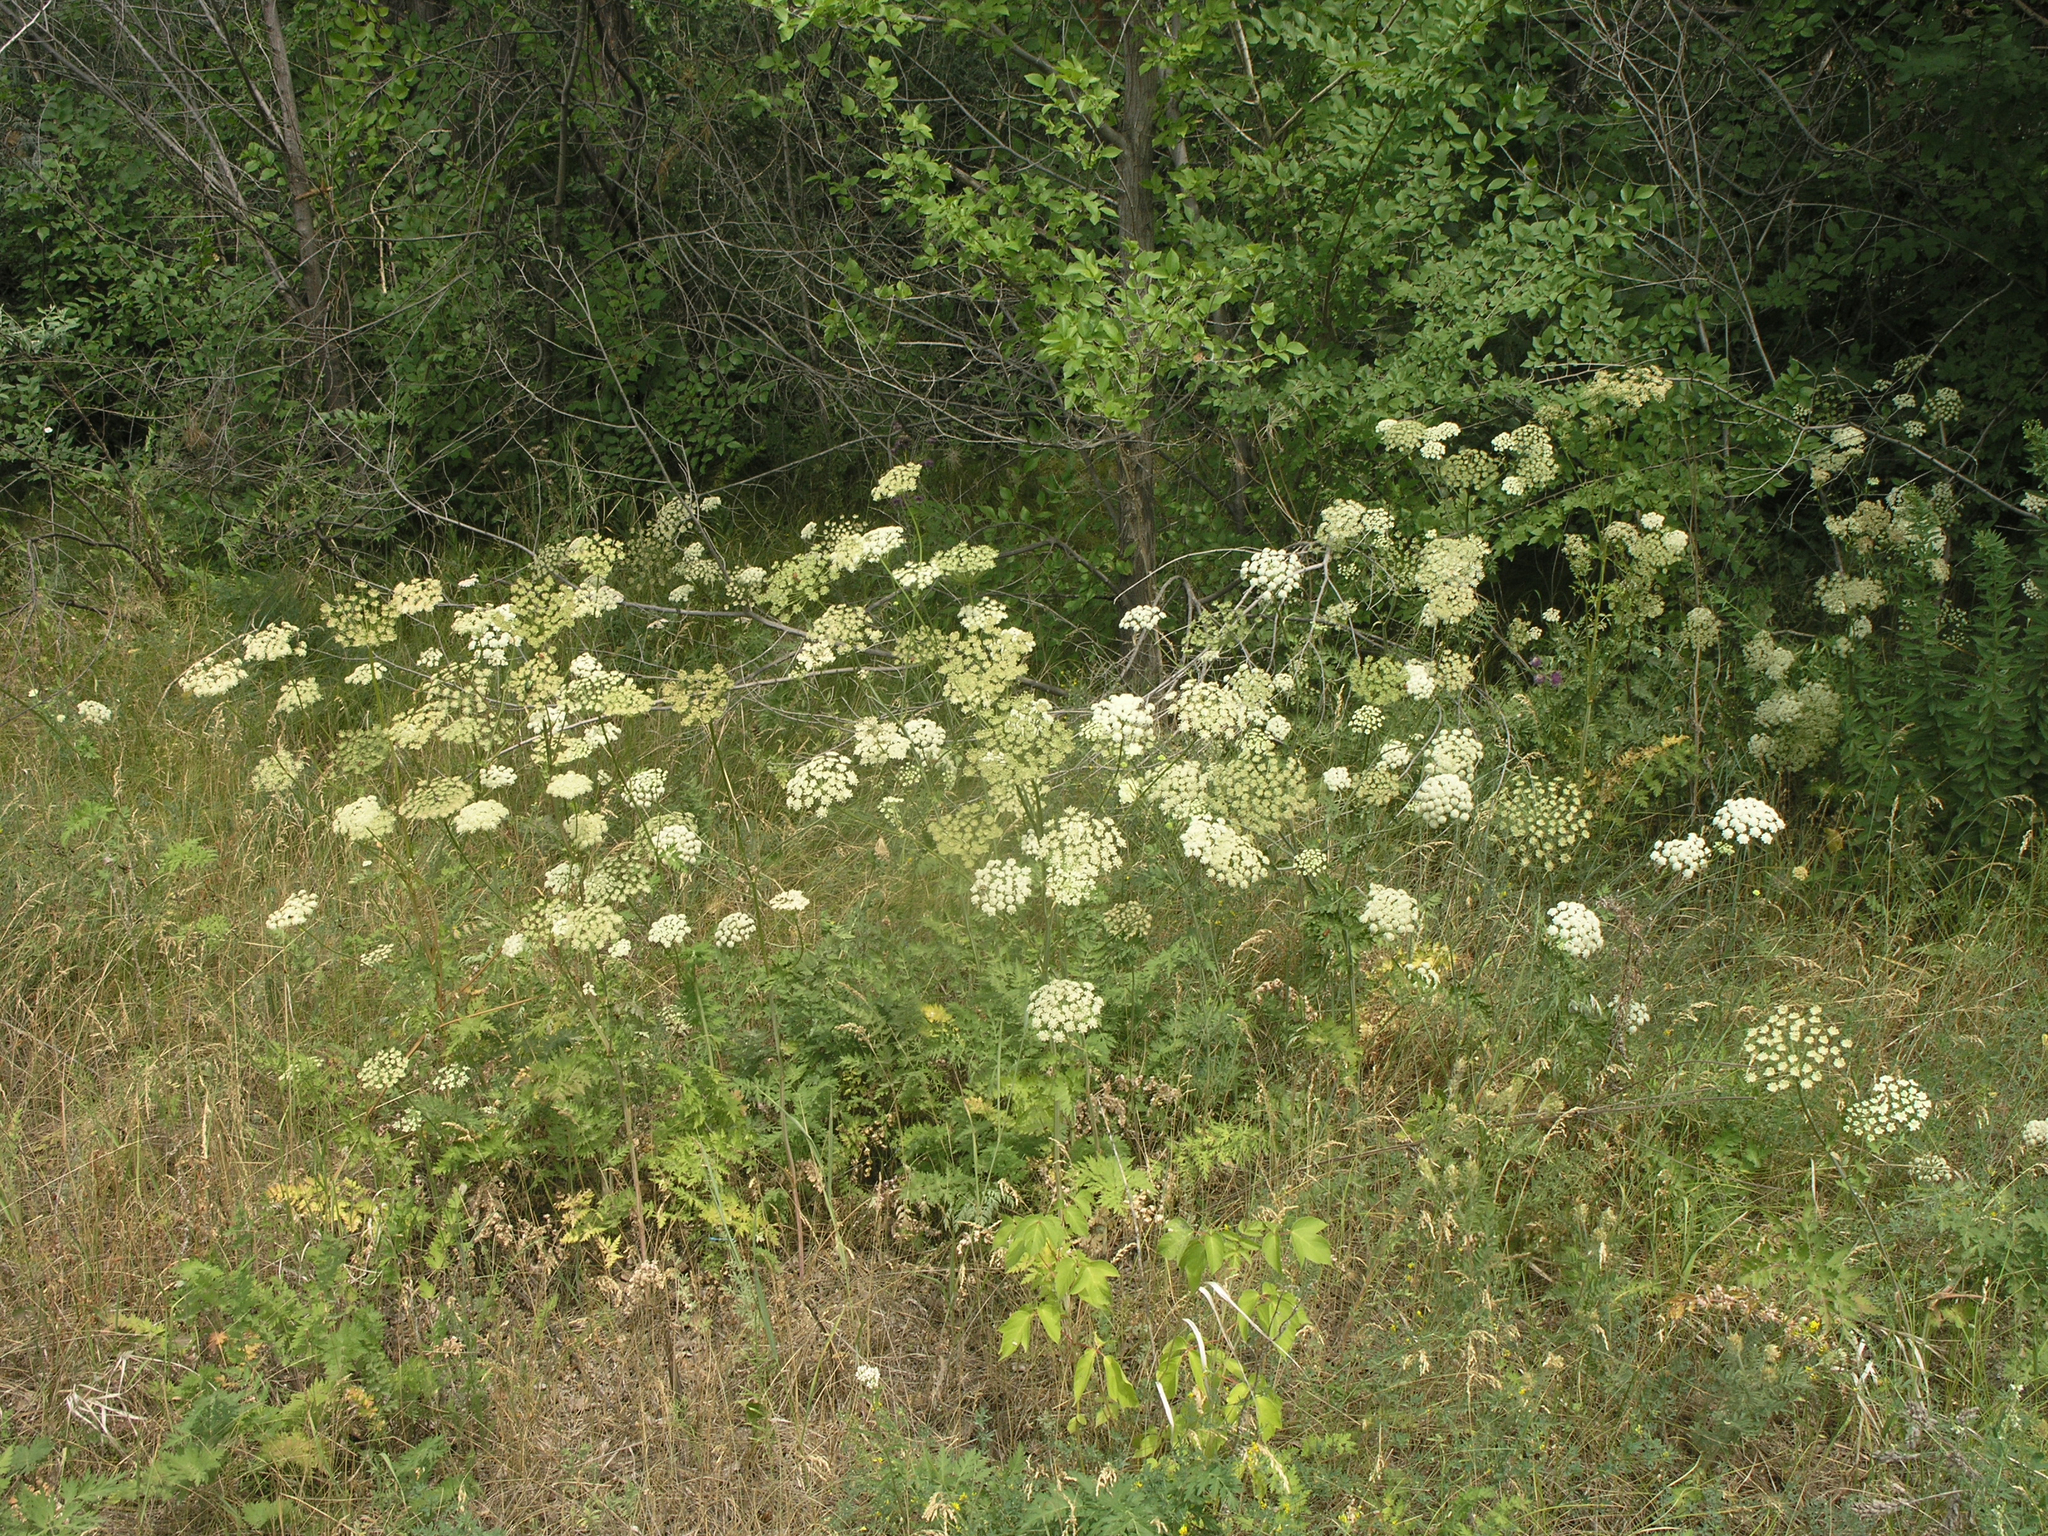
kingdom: Plantae
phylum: Tracheophyta
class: Magnoliopsida
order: Apiales
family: Apiaceae
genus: Seseli
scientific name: Seseli libanotis
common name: Mooncarrot
